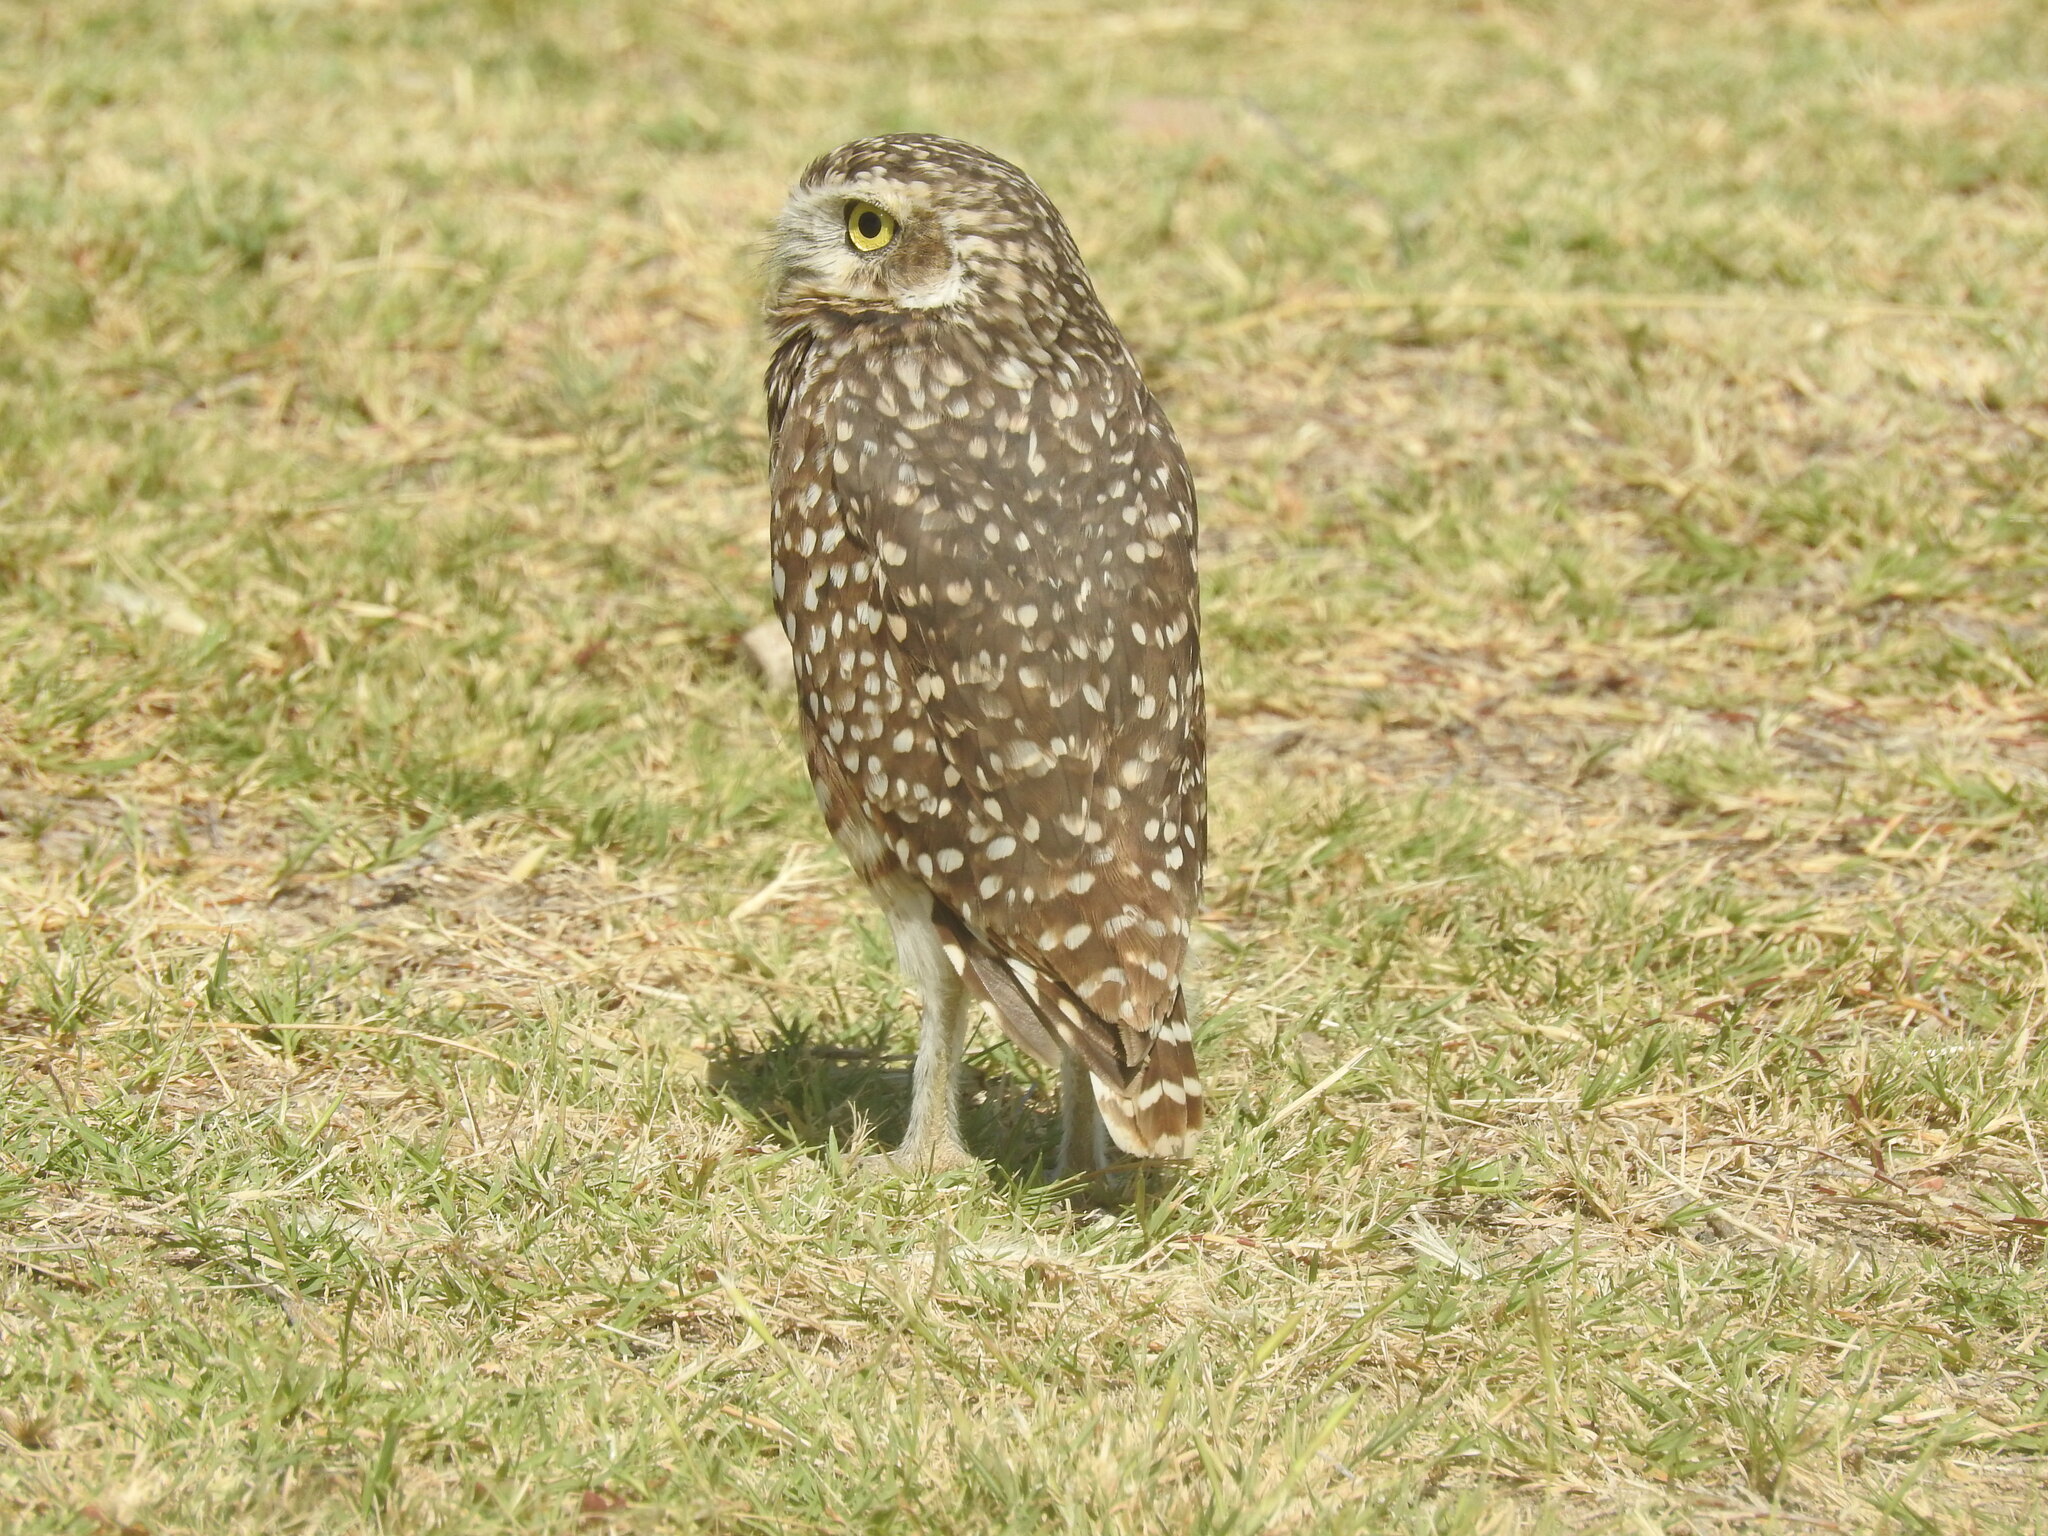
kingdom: Animalia
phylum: Chordata
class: Aves
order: Strigiformes
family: Strigidae
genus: Athene
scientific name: Athene cunicularia
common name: Burrowing owl
